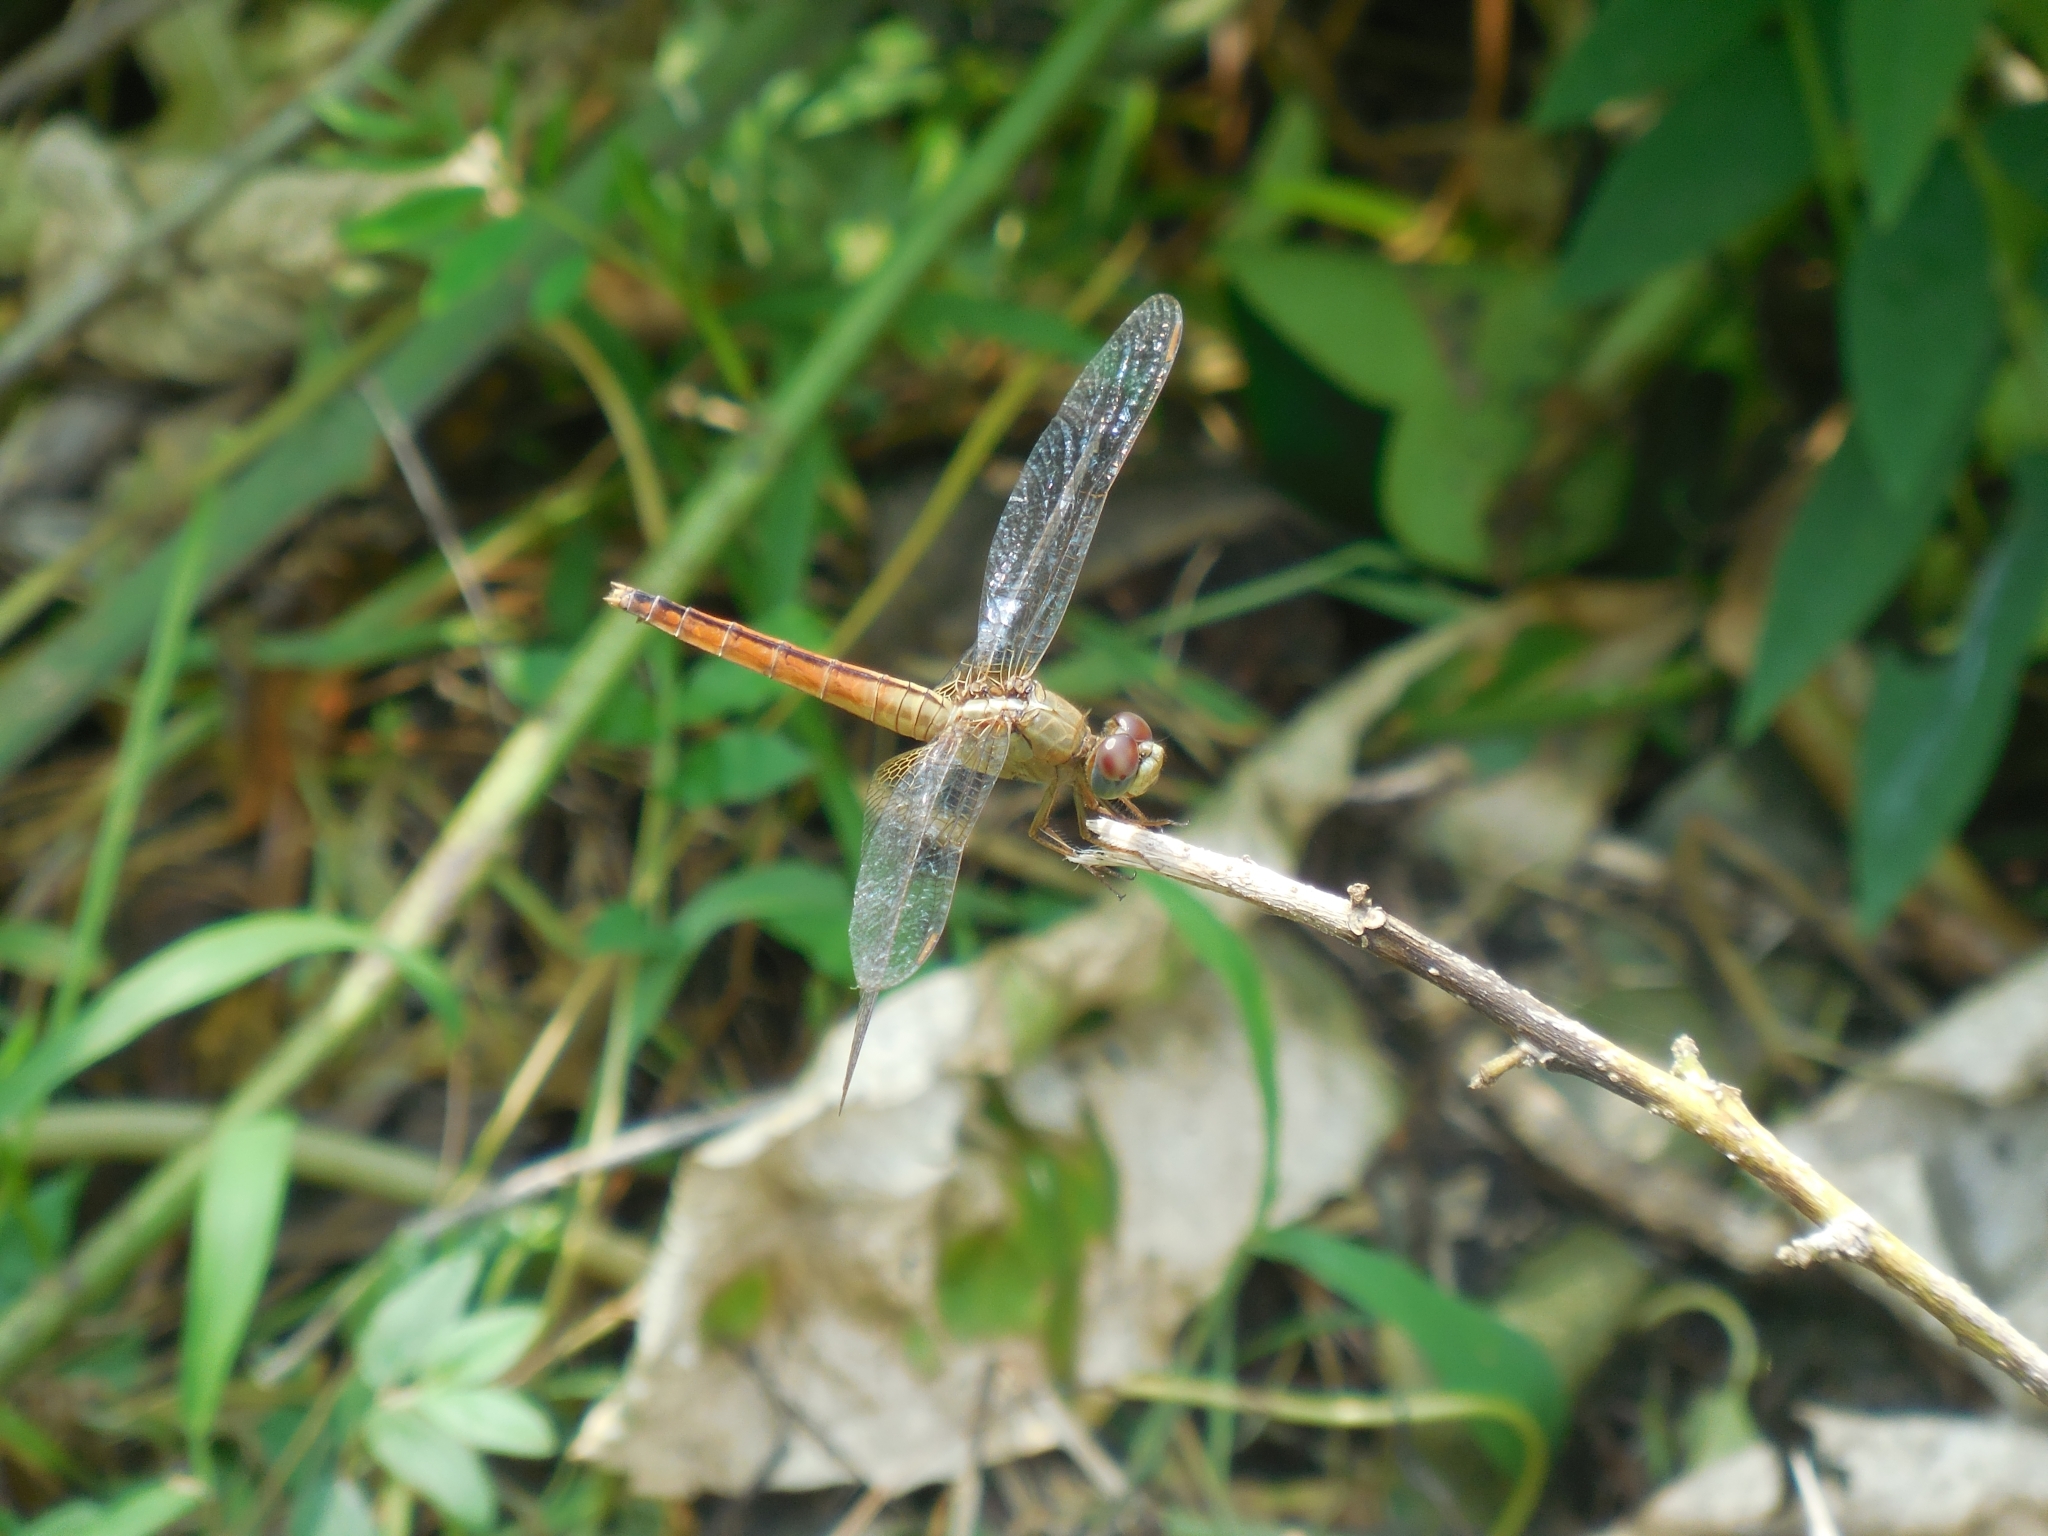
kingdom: Animalia
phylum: Arthropoda
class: Insecta
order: Odonata
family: Libellulidae
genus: Crocothemis
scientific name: Crocothemis servilia
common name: Scarlet skimmer
